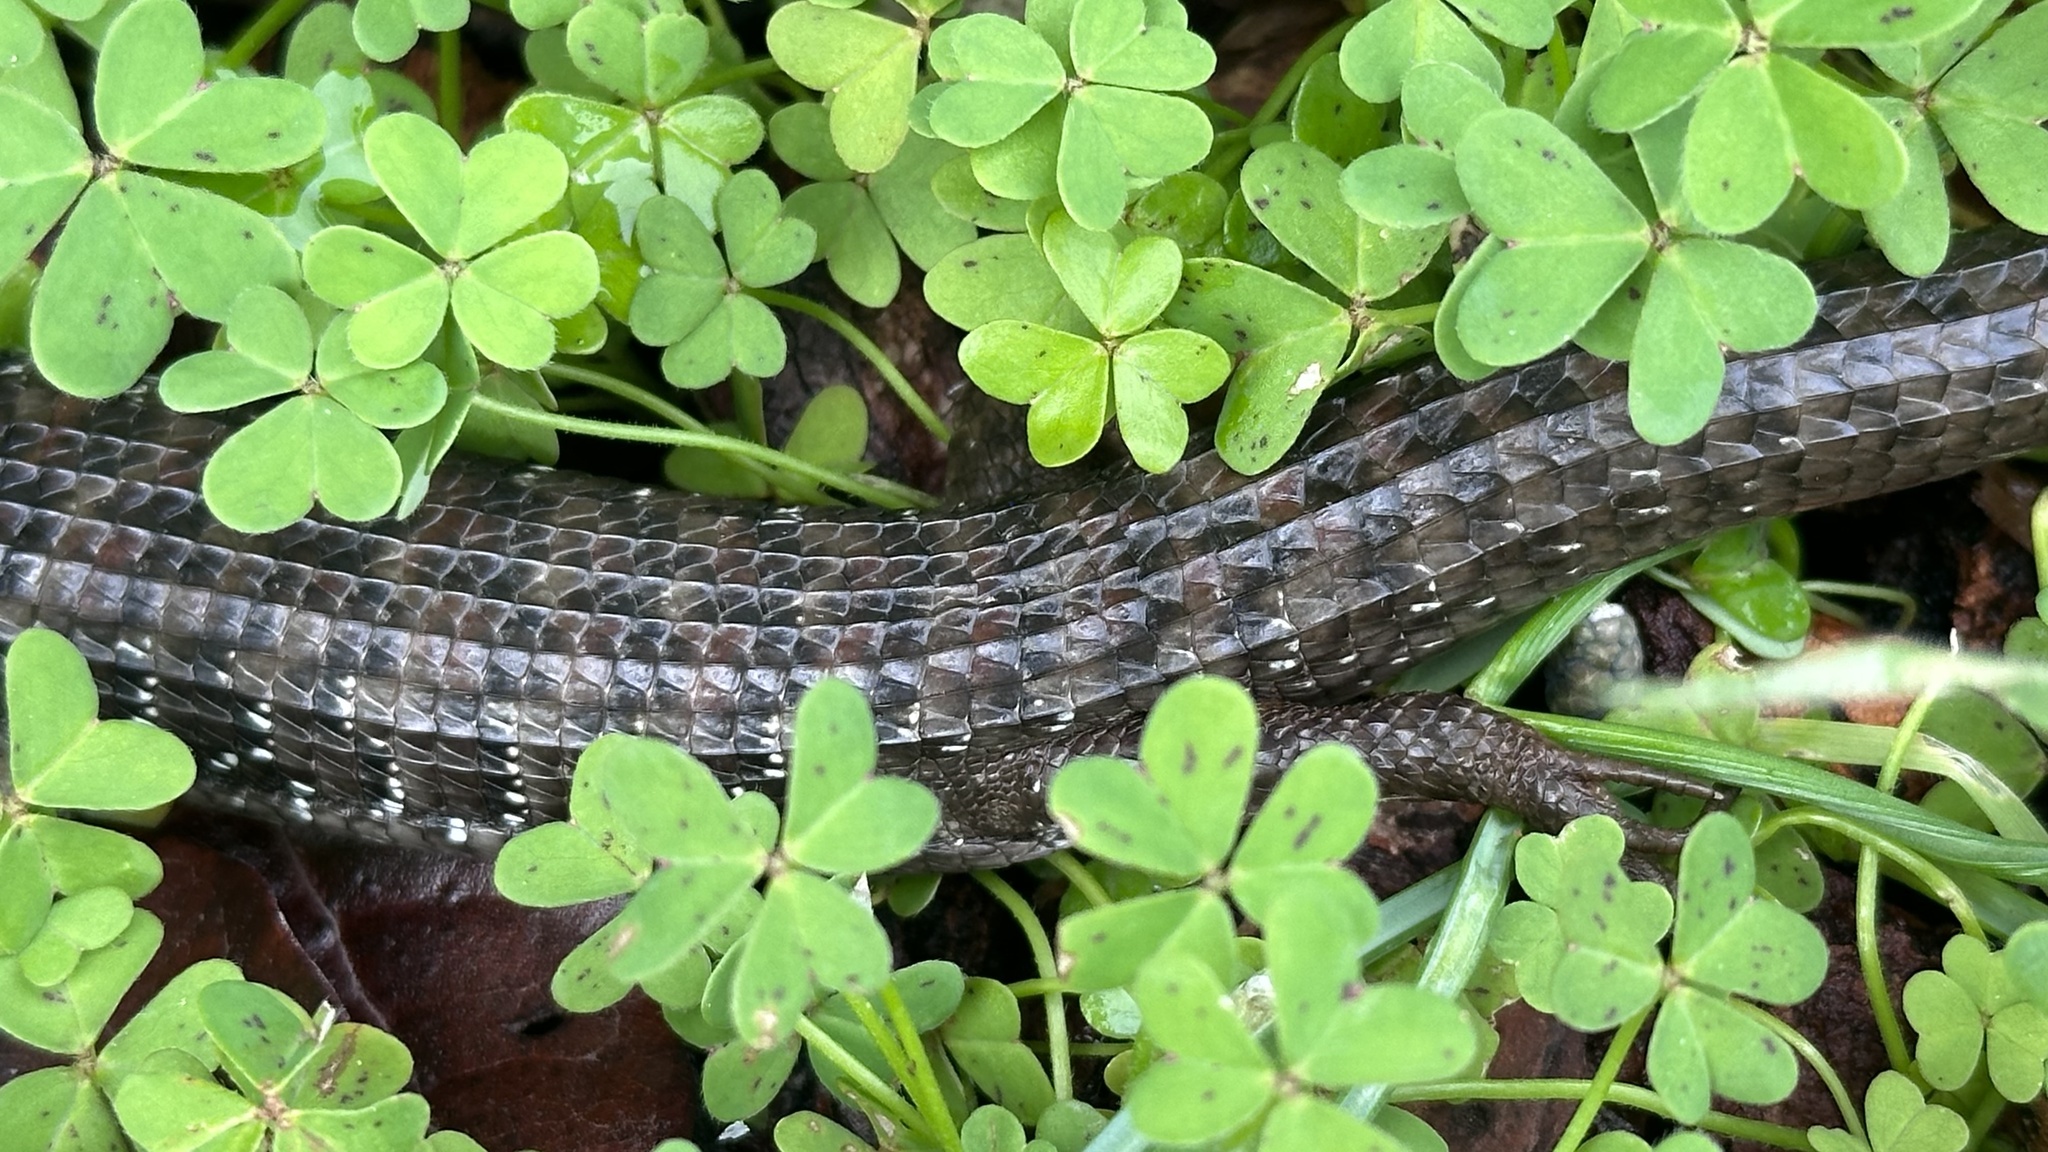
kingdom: Animalia
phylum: Chordata
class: Squamata
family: Anguidae
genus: Elgaria
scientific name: Elgaria multicarinata
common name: Southern alligator lizard
